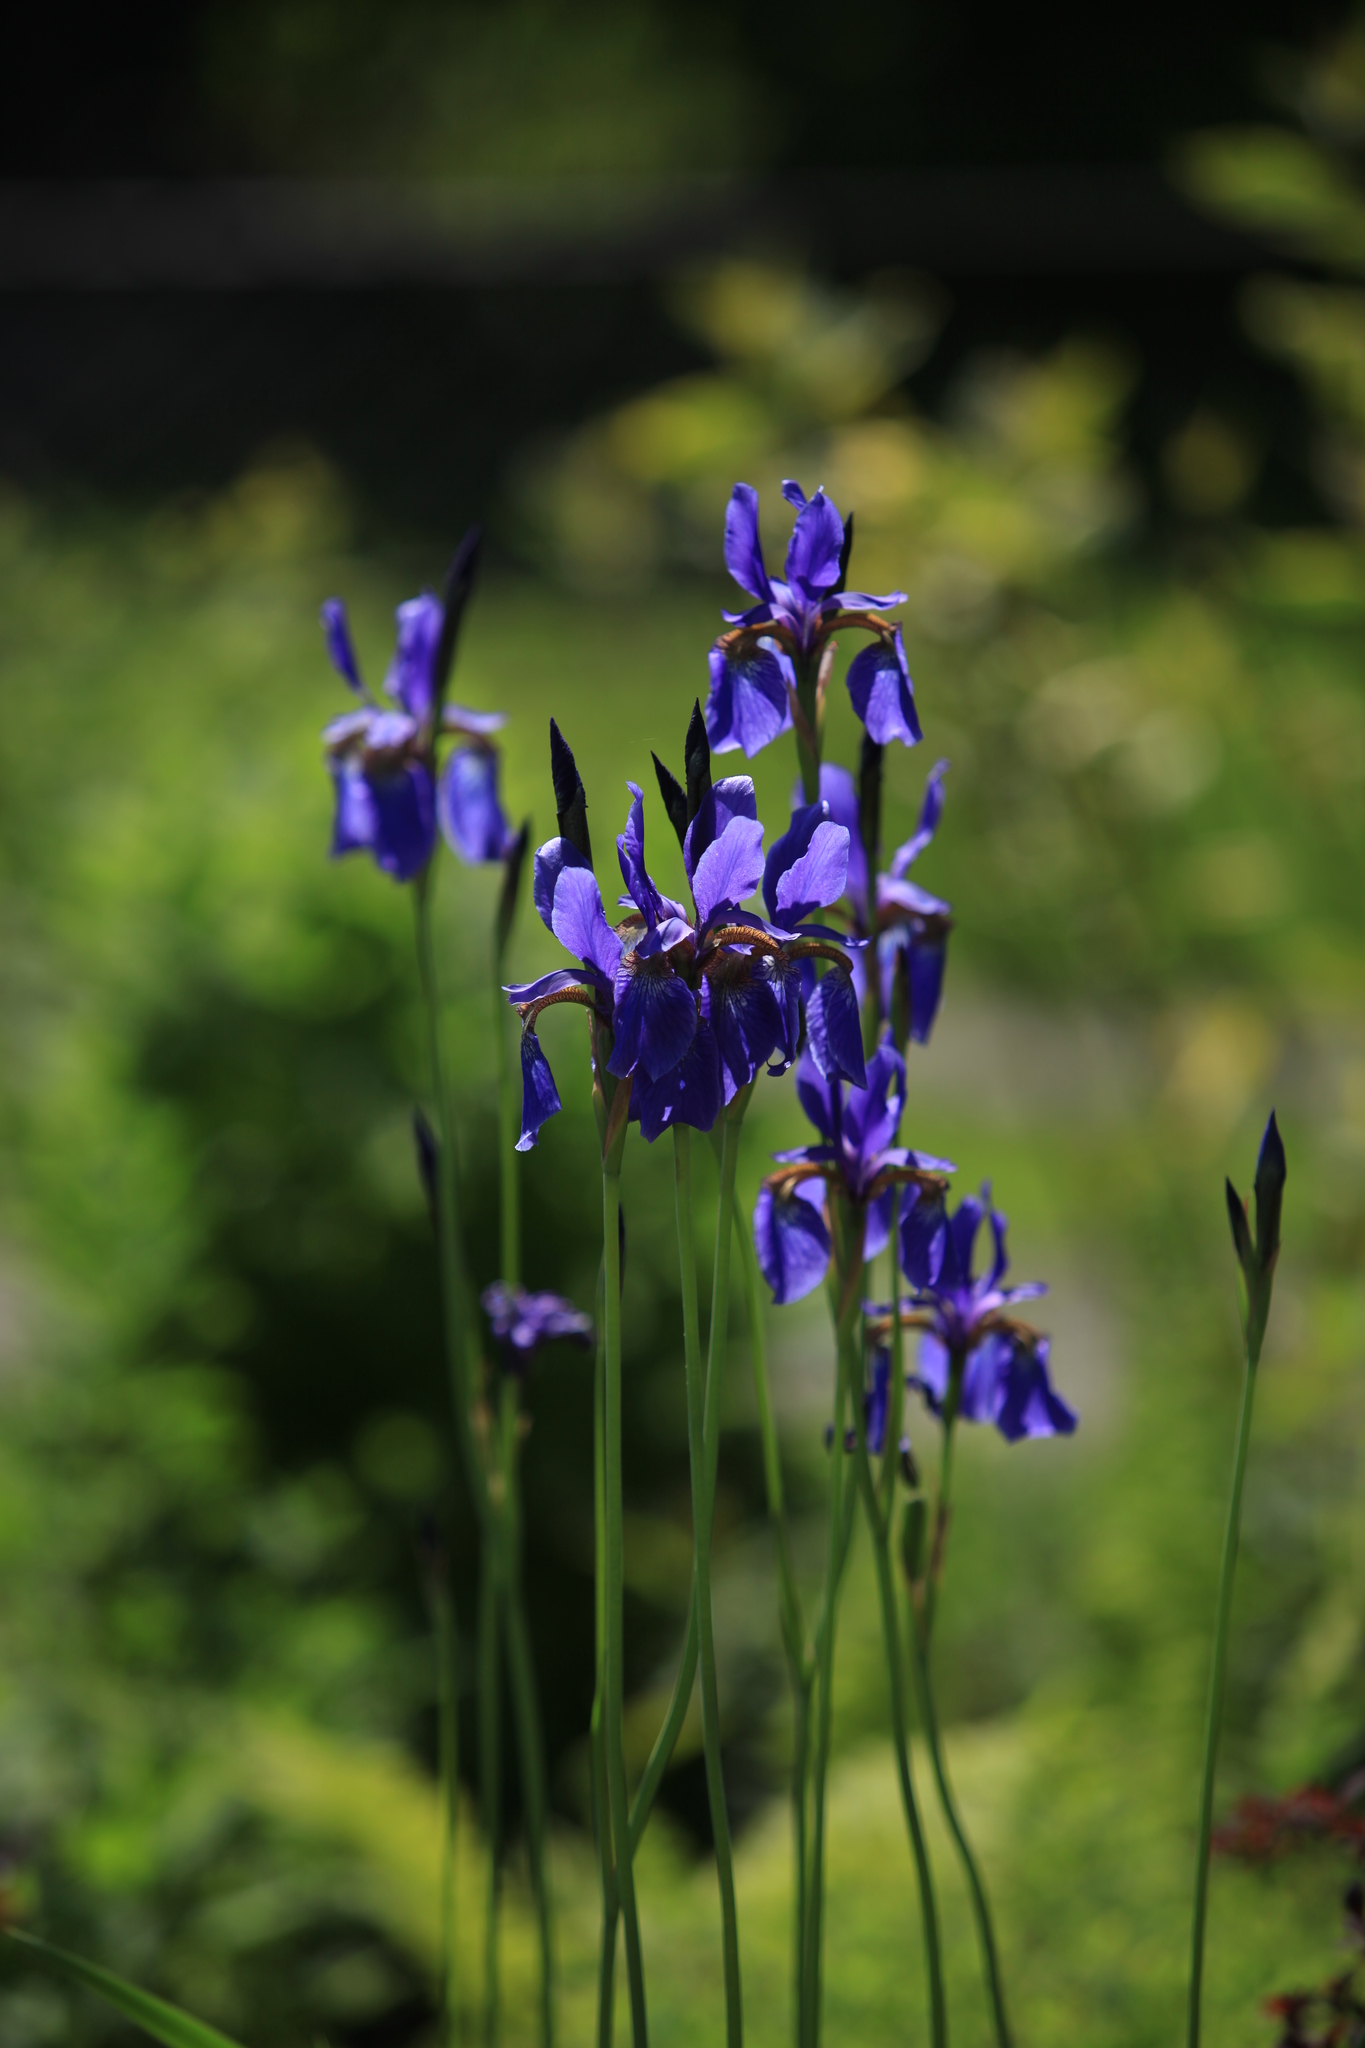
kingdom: Plantae
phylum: Tracheophyta
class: Liliopsida
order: Asparagales
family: Iridaceae
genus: Iris
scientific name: Iris sibirica
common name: Siberian iris
